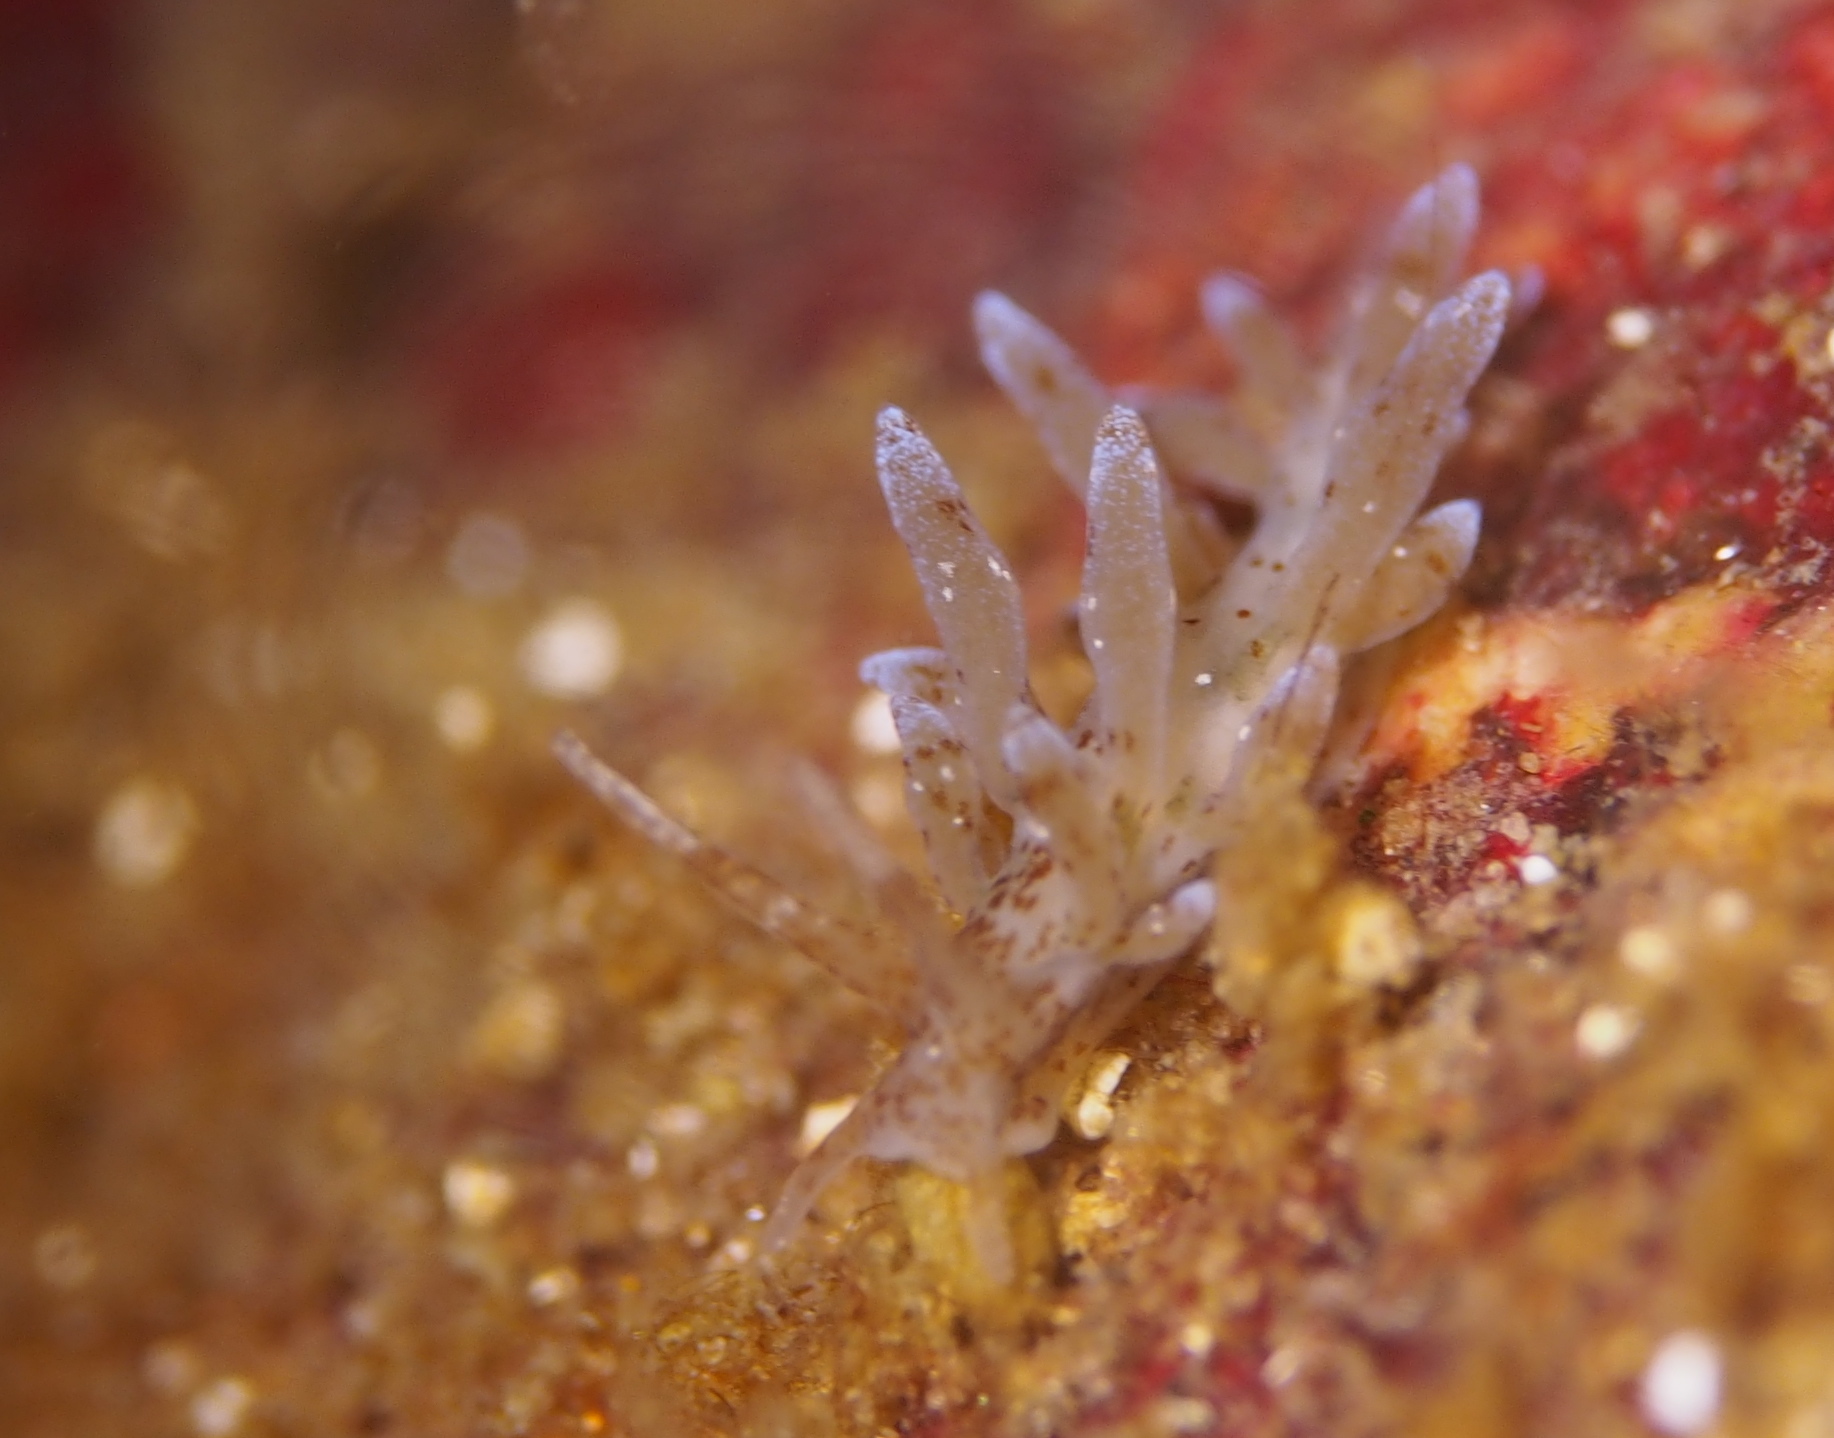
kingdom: Animalia
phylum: Mollusca
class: Gastropoda
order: Nudibranchia
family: Eubranchidae
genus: Eubranchus
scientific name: Eubranchus rupium
